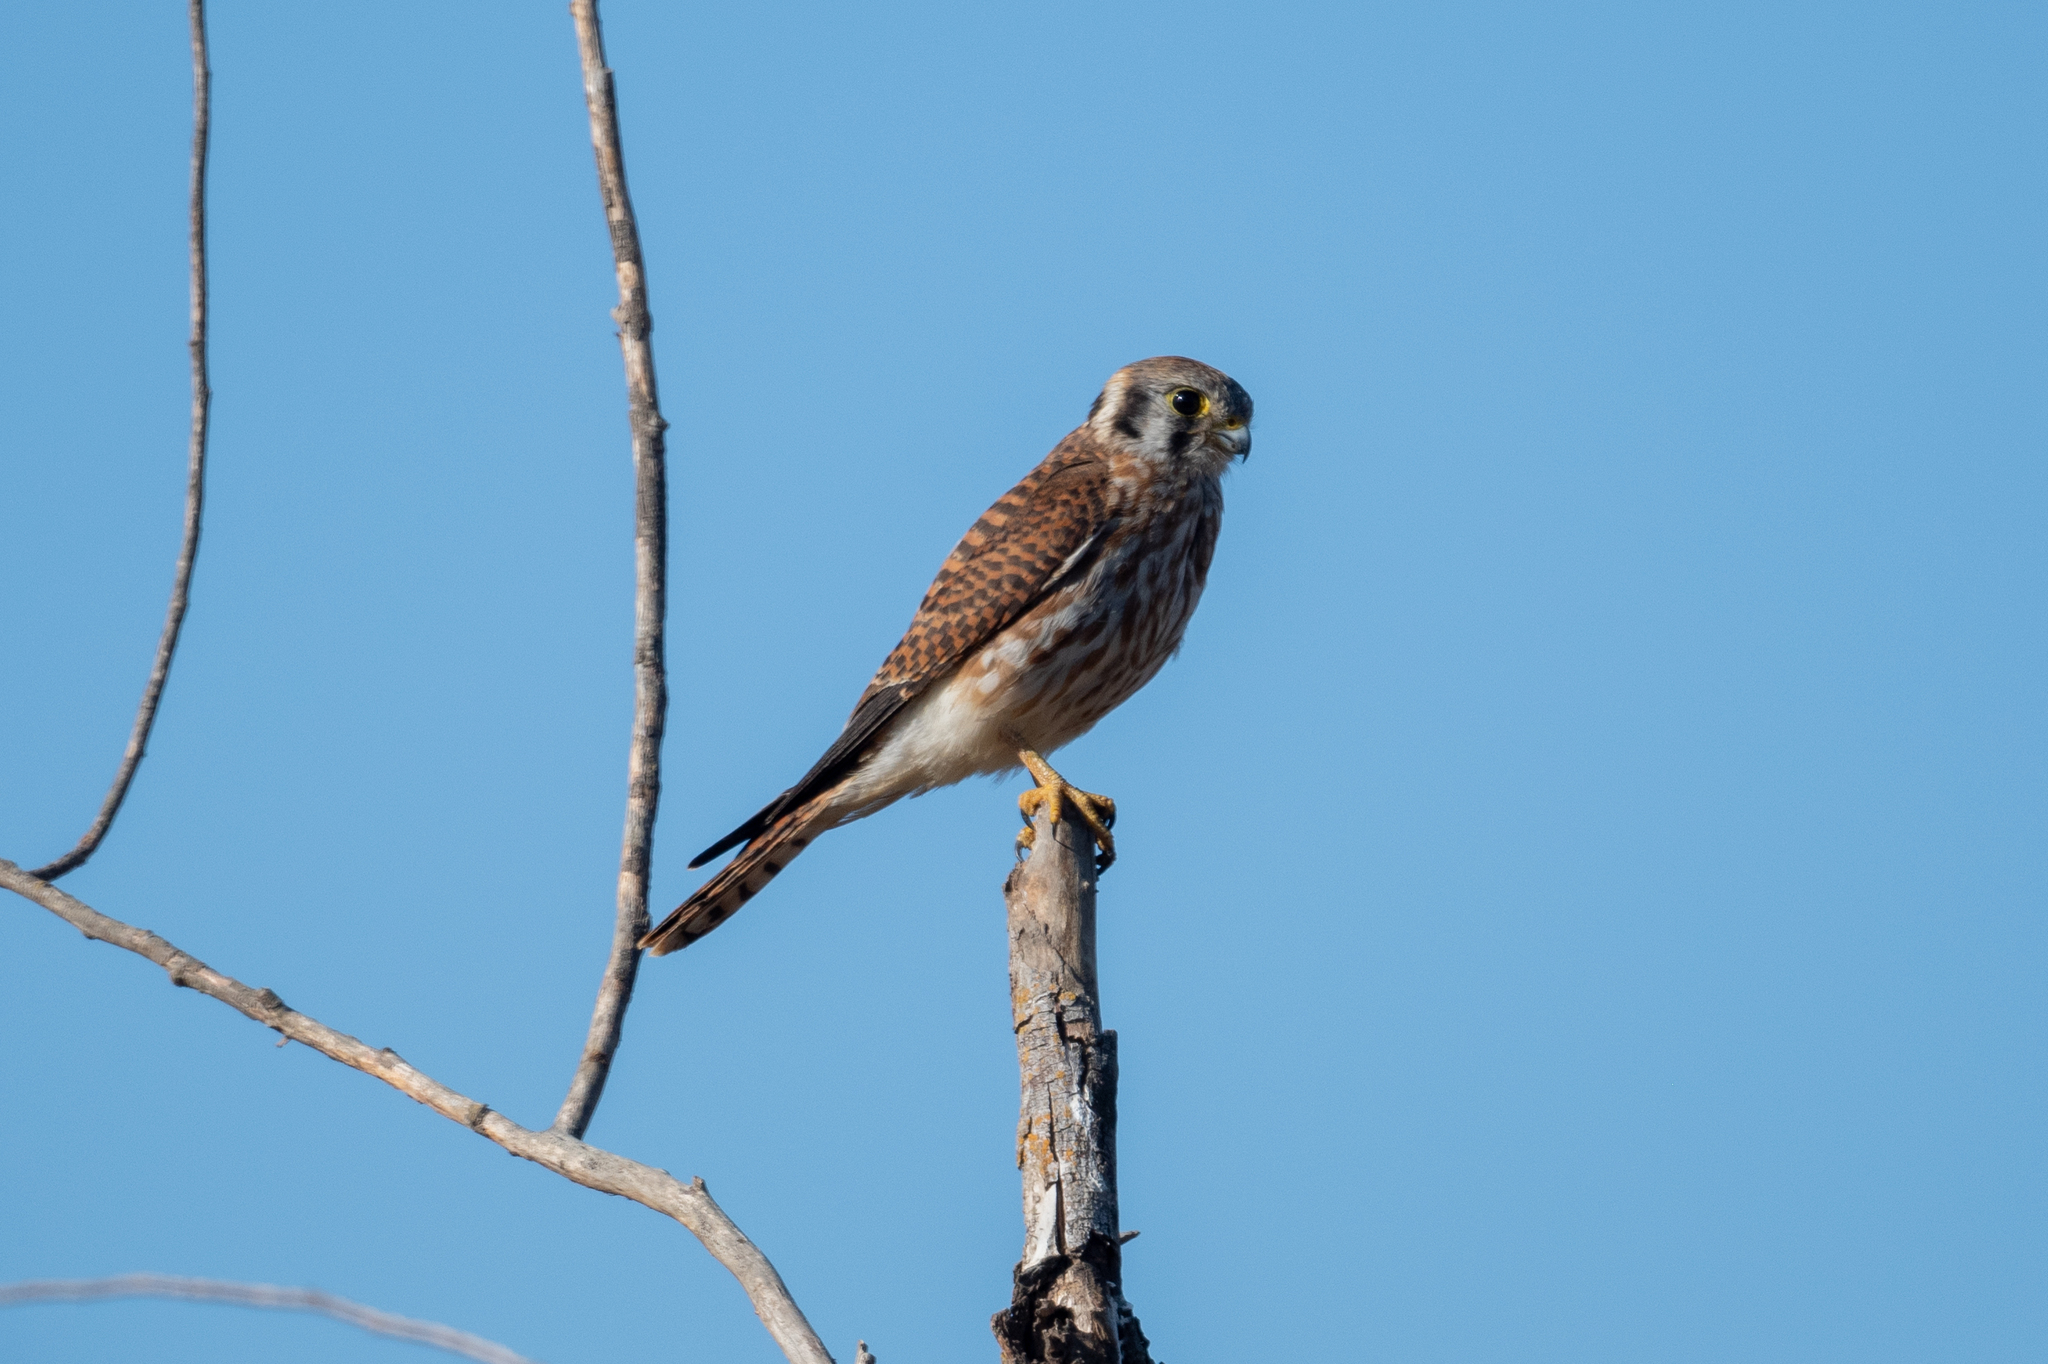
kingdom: Animalia
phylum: Chordata
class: Aves
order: Falconiformes
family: Falconidae
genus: Falco
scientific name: Falco sparverius
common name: American kestrel
